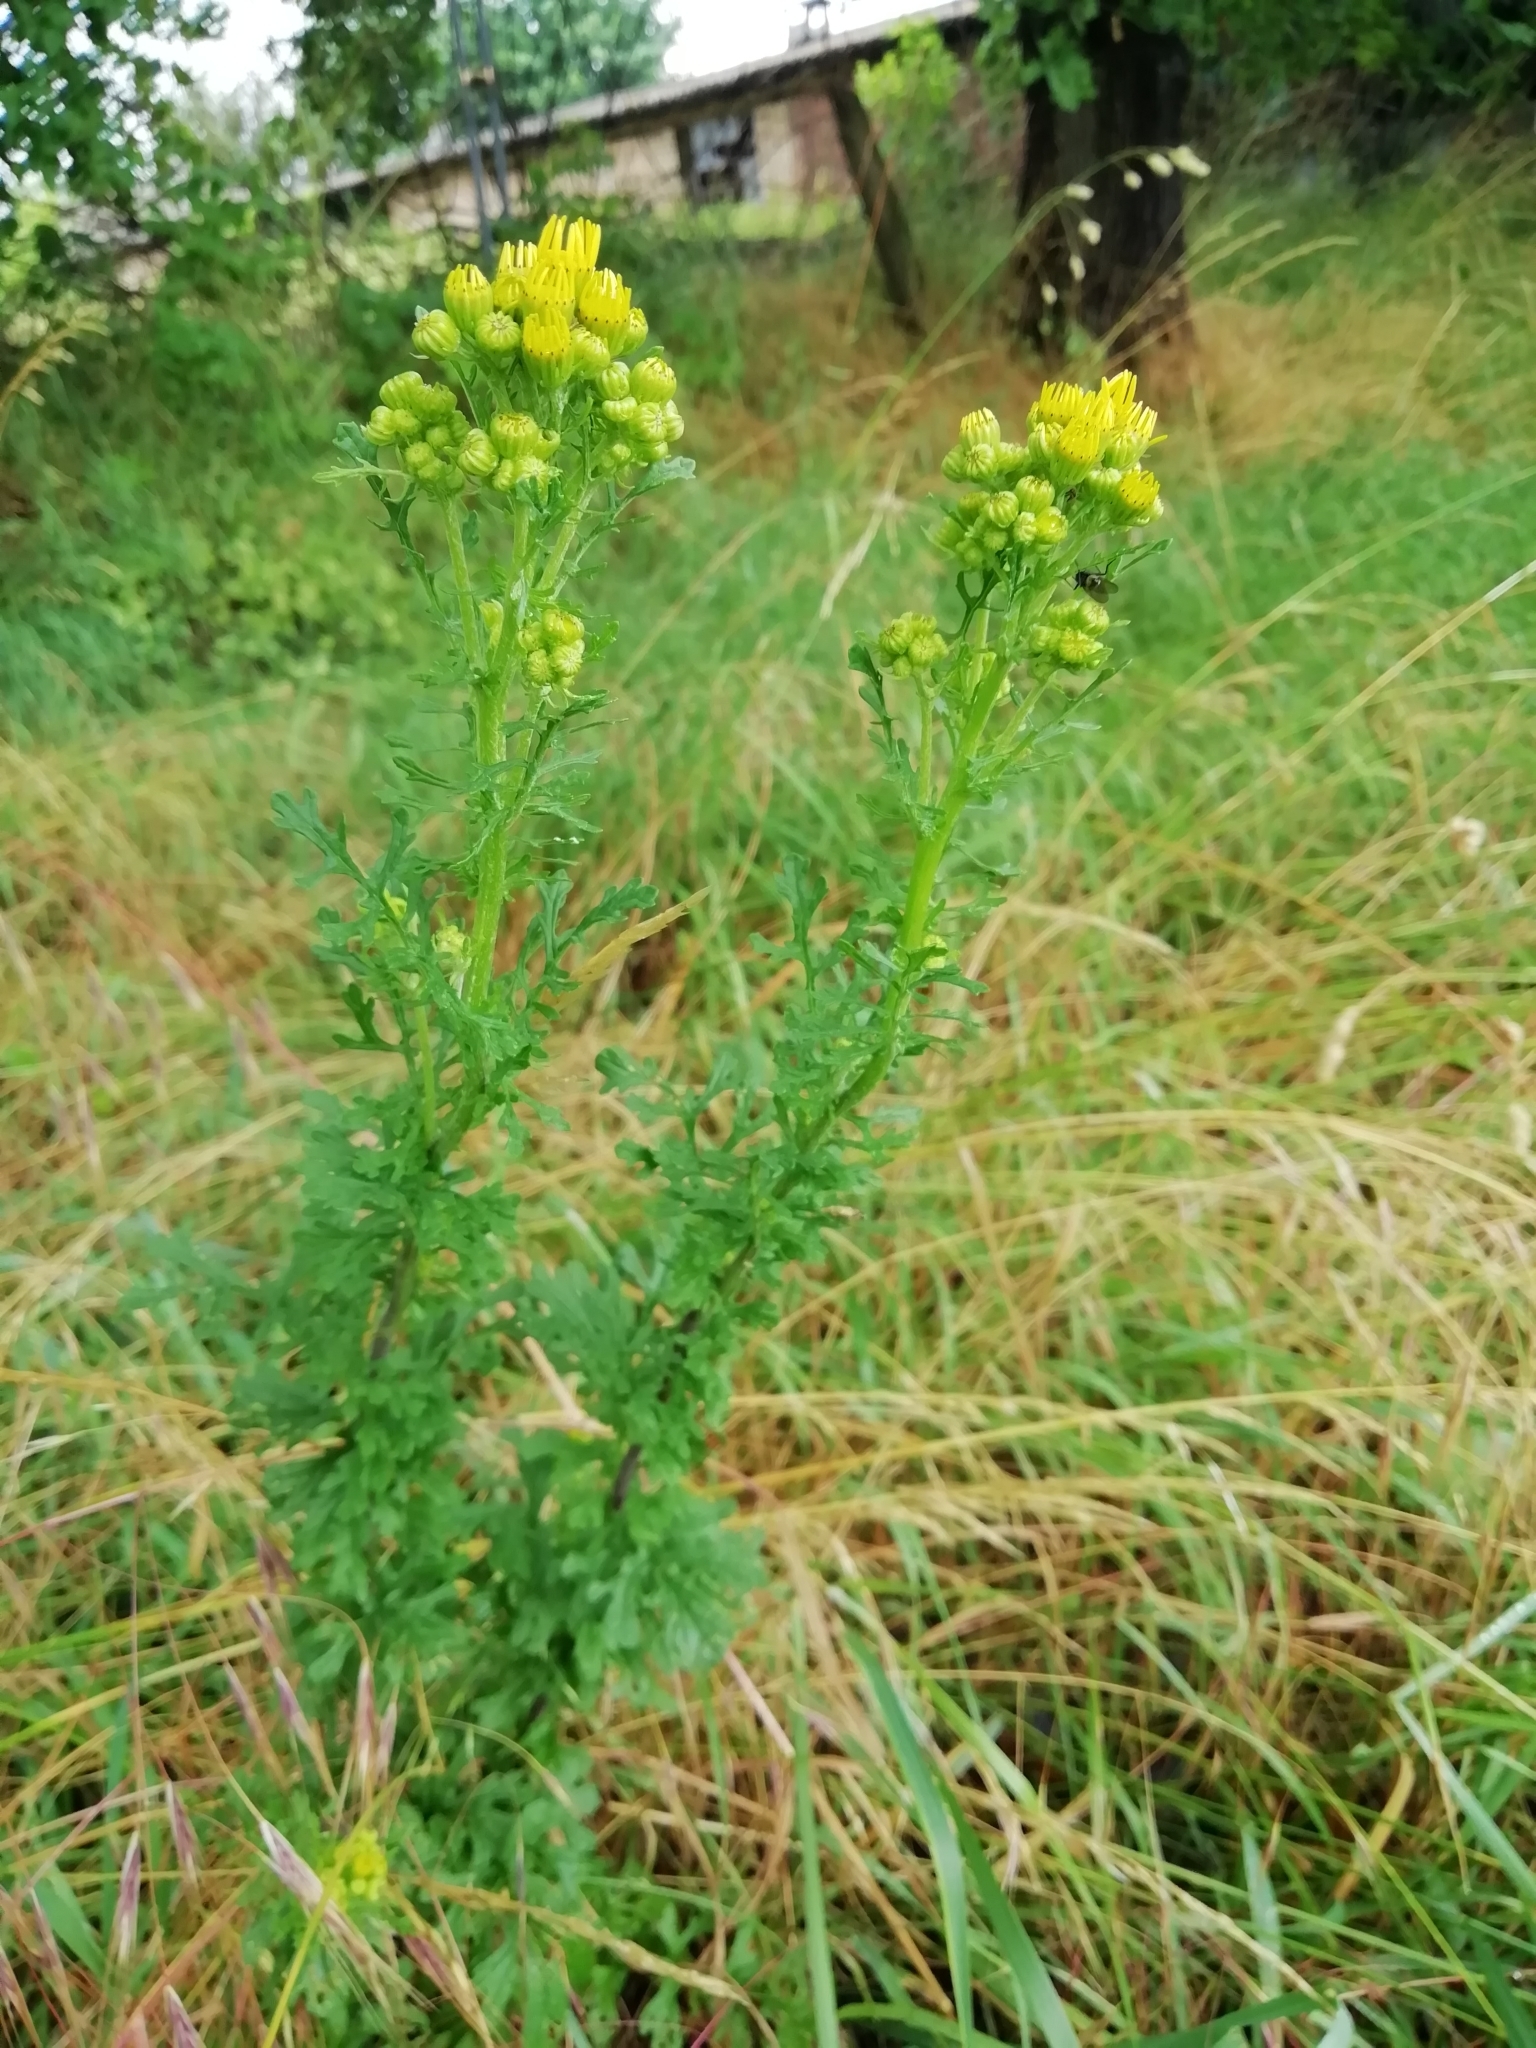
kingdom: Plantae
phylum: Tracheophyta
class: Magnoliopsida
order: Asterales
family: Asteraceae
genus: Jacobaea
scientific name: Jacobaea vulgaris
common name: Stinking willie
